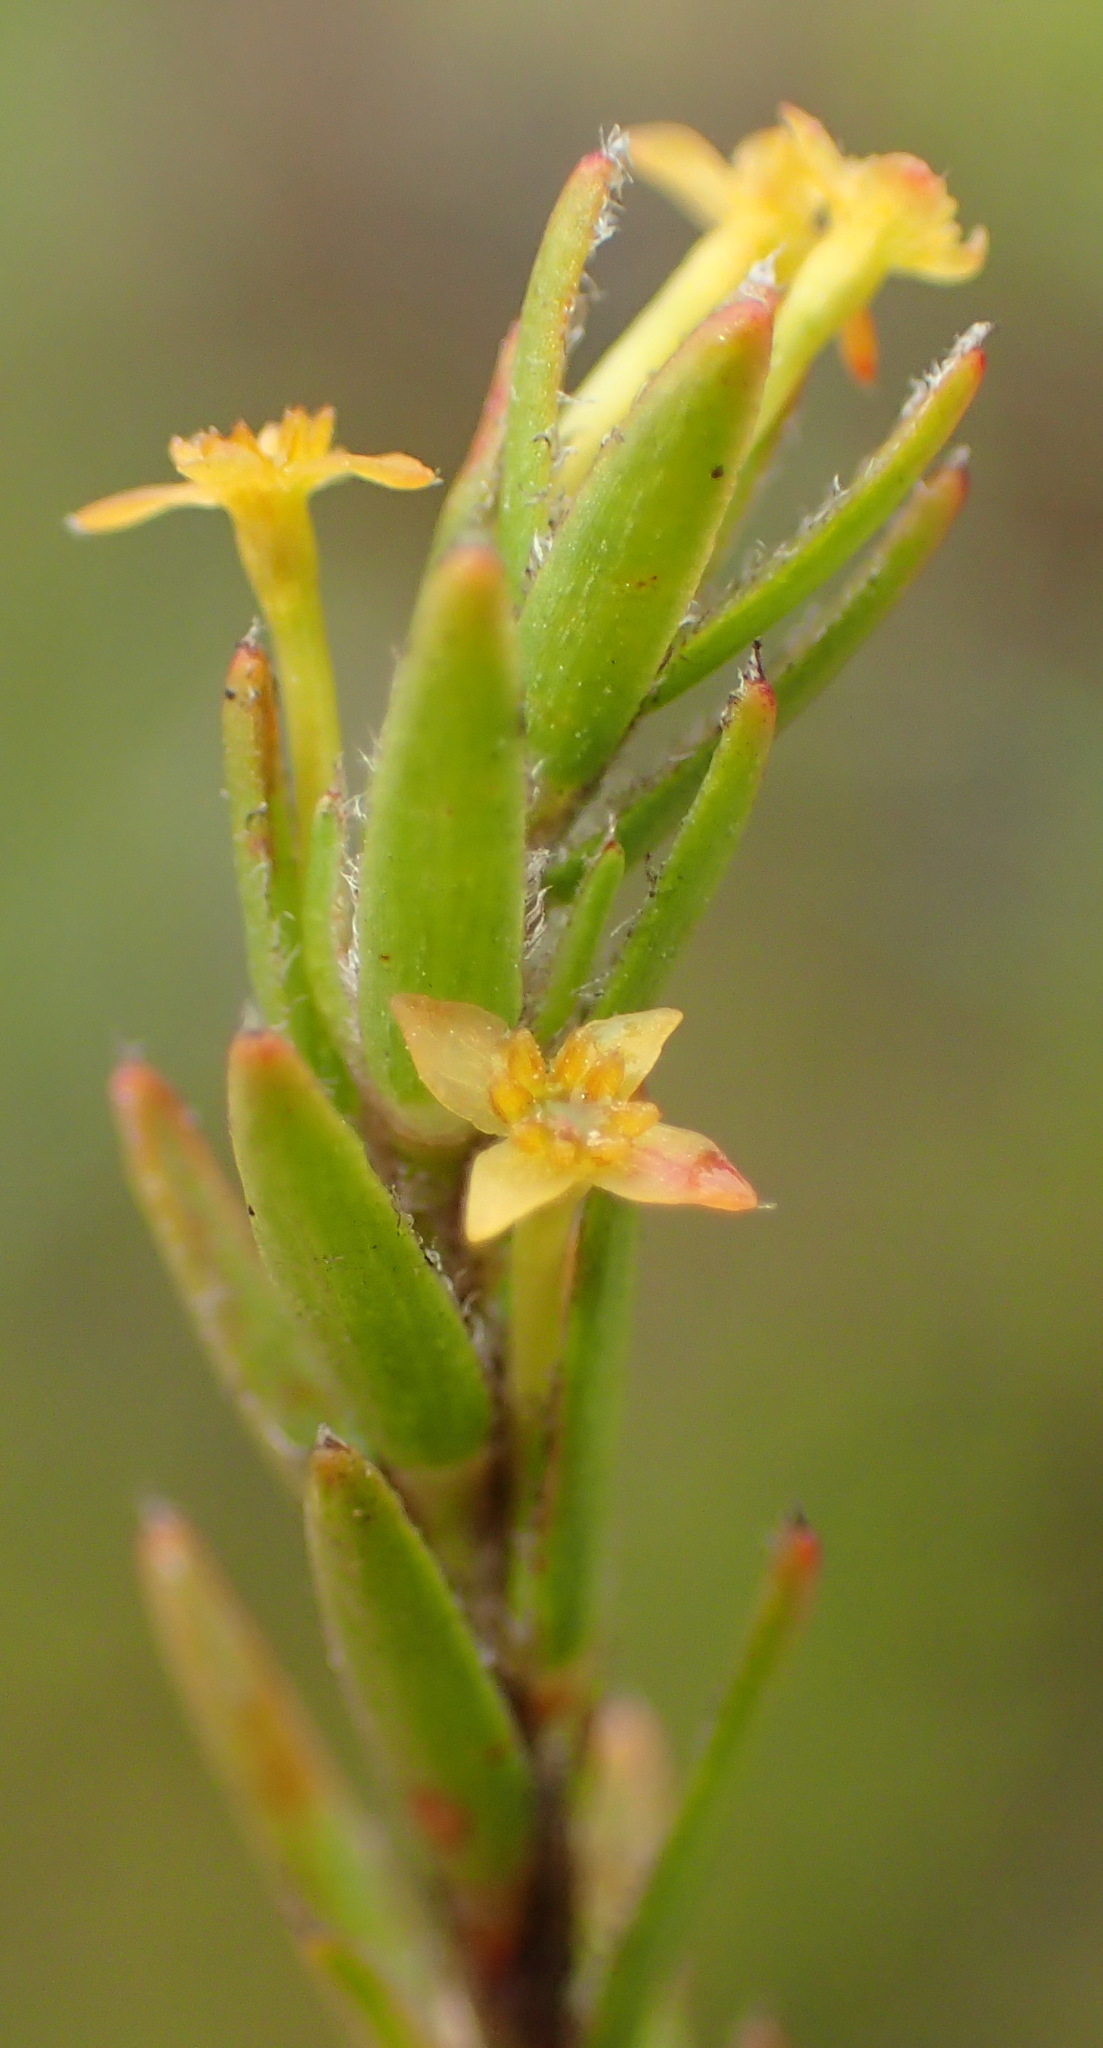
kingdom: Plantae
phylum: Tracheophyta
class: Magnoliopsida
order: Malvales
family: Thymelaeaceae
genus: Struthiola
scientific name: Struthiola parviflora
